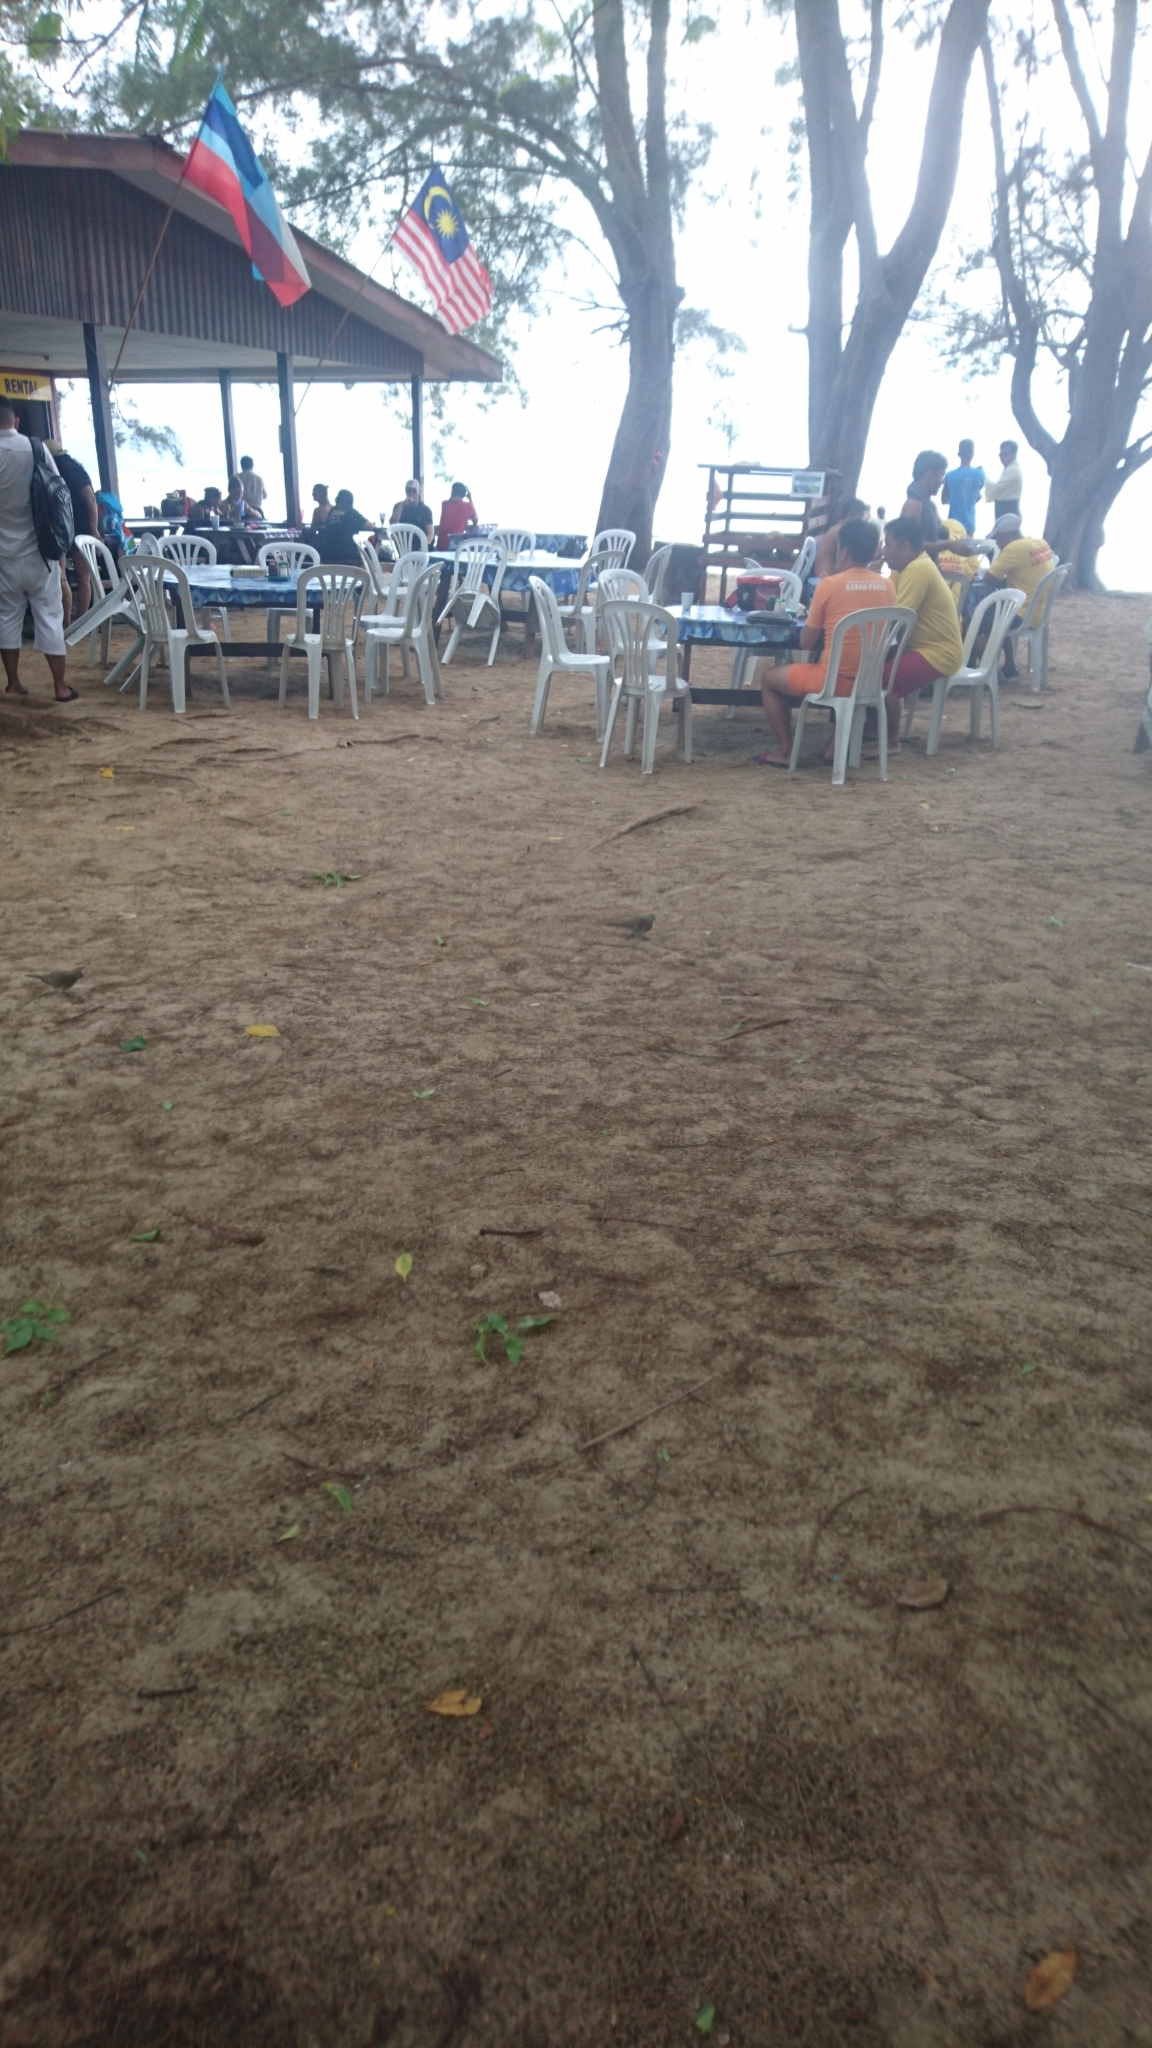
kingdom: Animalia
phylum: Chordata
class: Aves
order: Columbiformes
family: Columbidae
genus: Geopelia
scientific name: Geopelia striata
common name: Zebra dove
